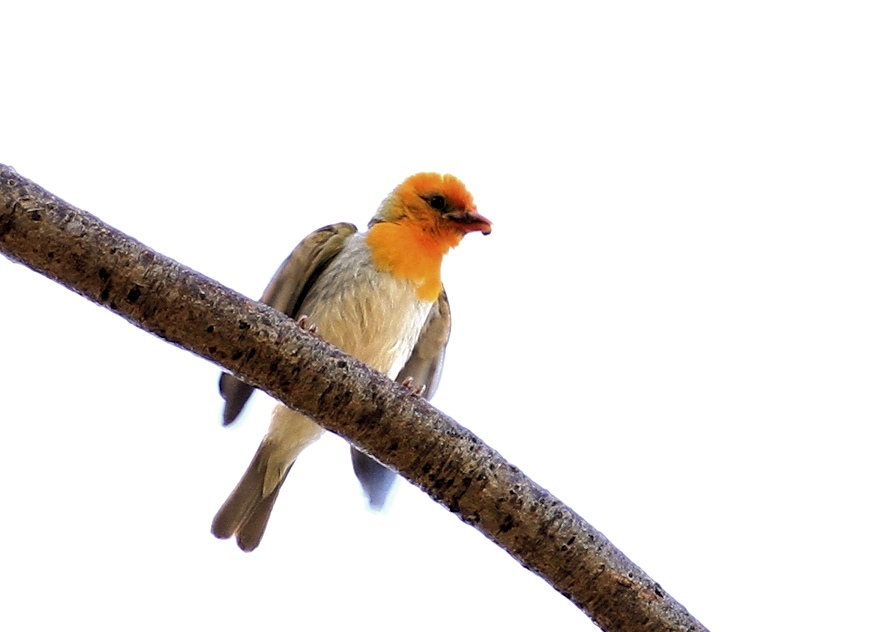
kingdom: Animalia
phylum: Chordata
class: Aves
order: Passeriformes
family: Ploceidae
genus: Anaplectes
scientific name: Anaplectes rubriceps
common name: Red-headed weaver
